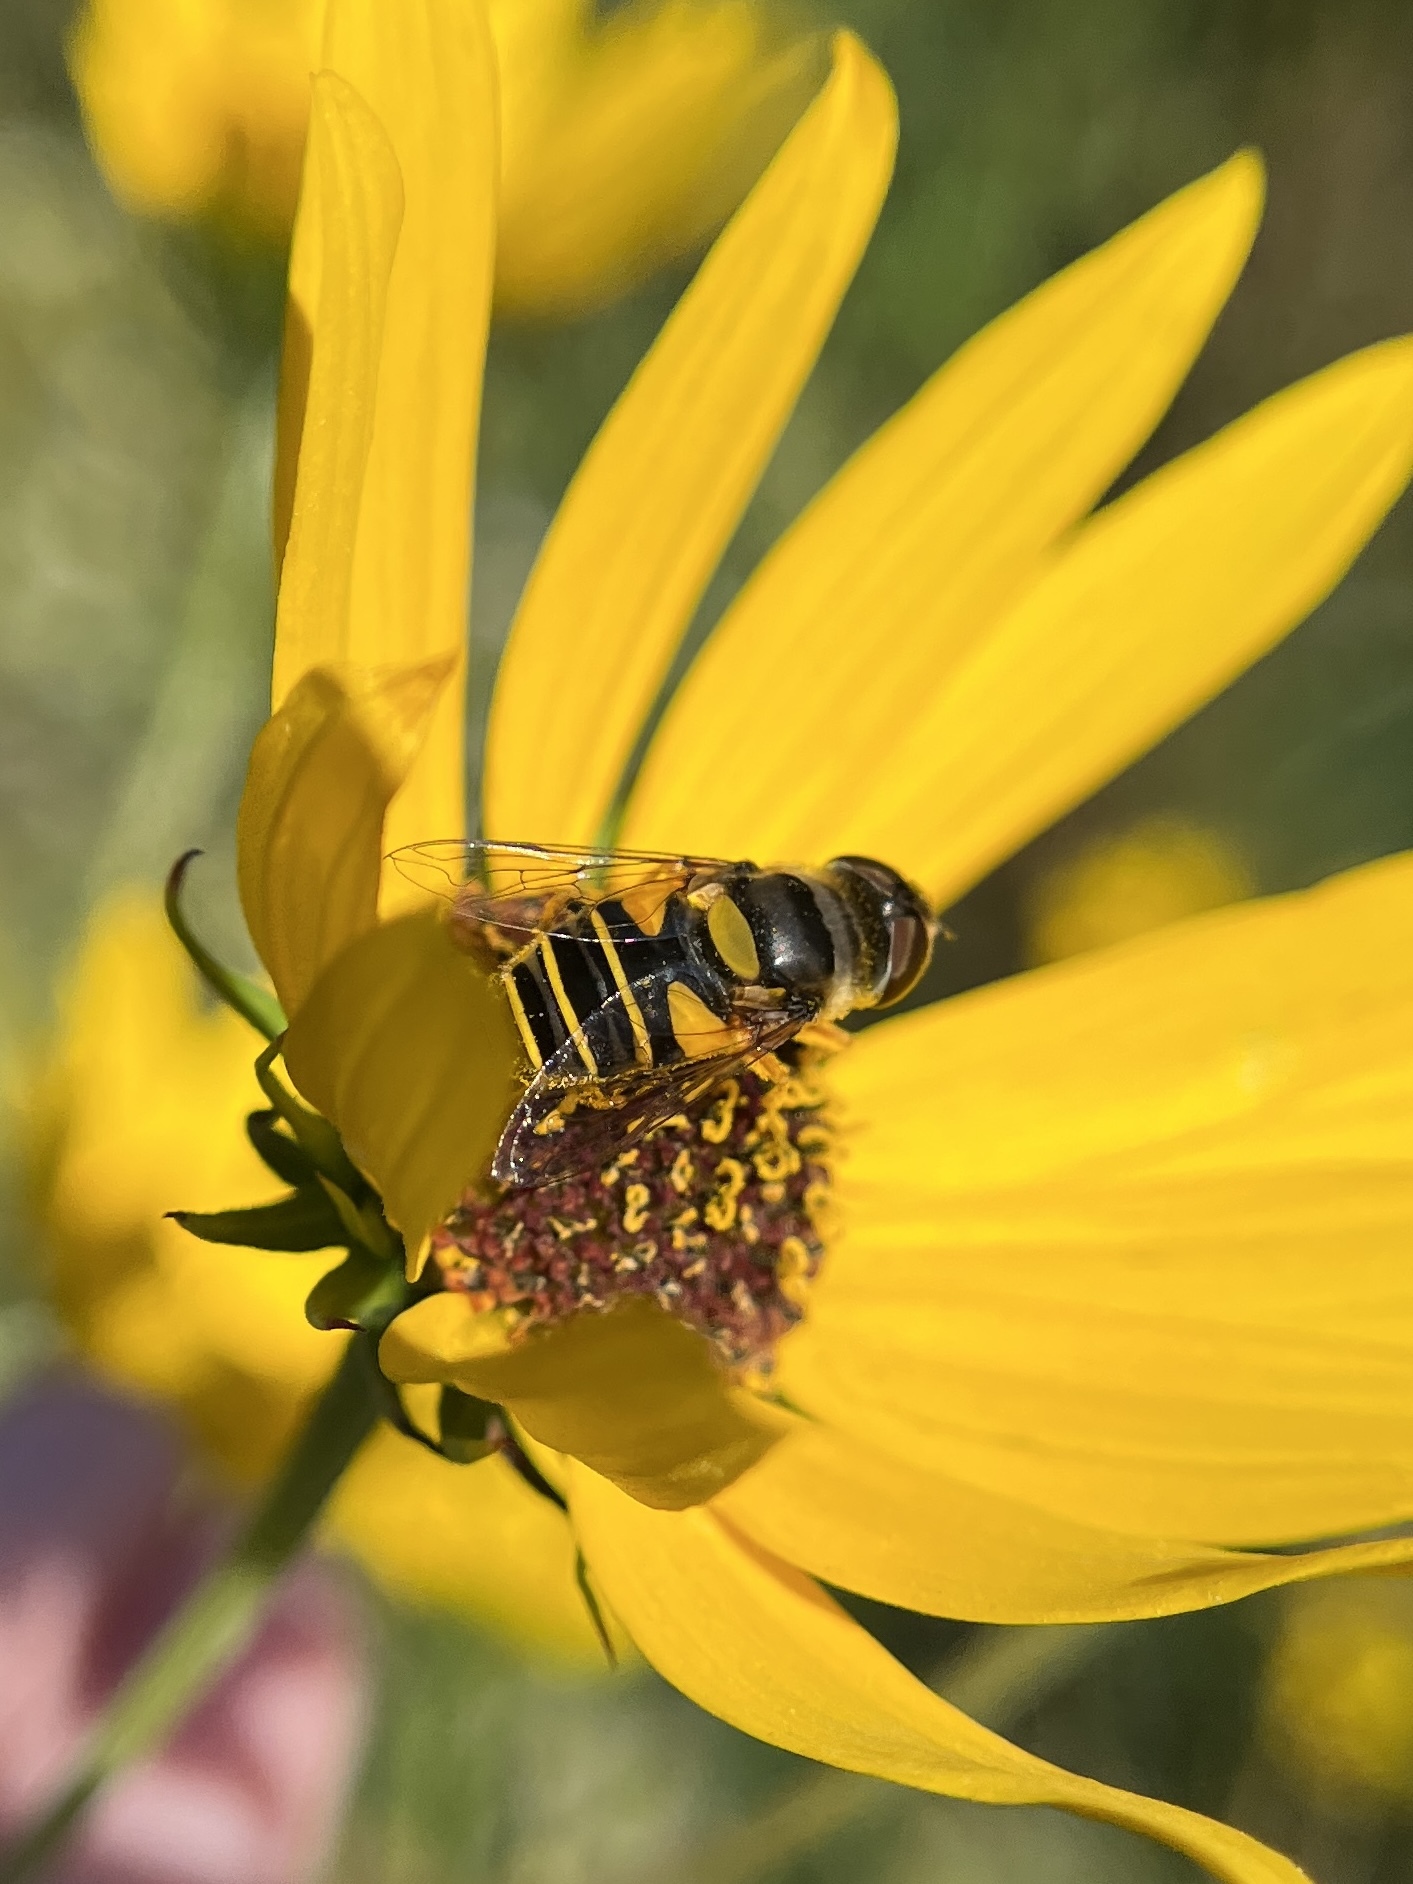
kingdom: Animalia
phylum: Arthropoda
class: Insecta
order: Diptera
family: Syrphidae
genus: Eristalis
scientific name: Eristalis transversa
